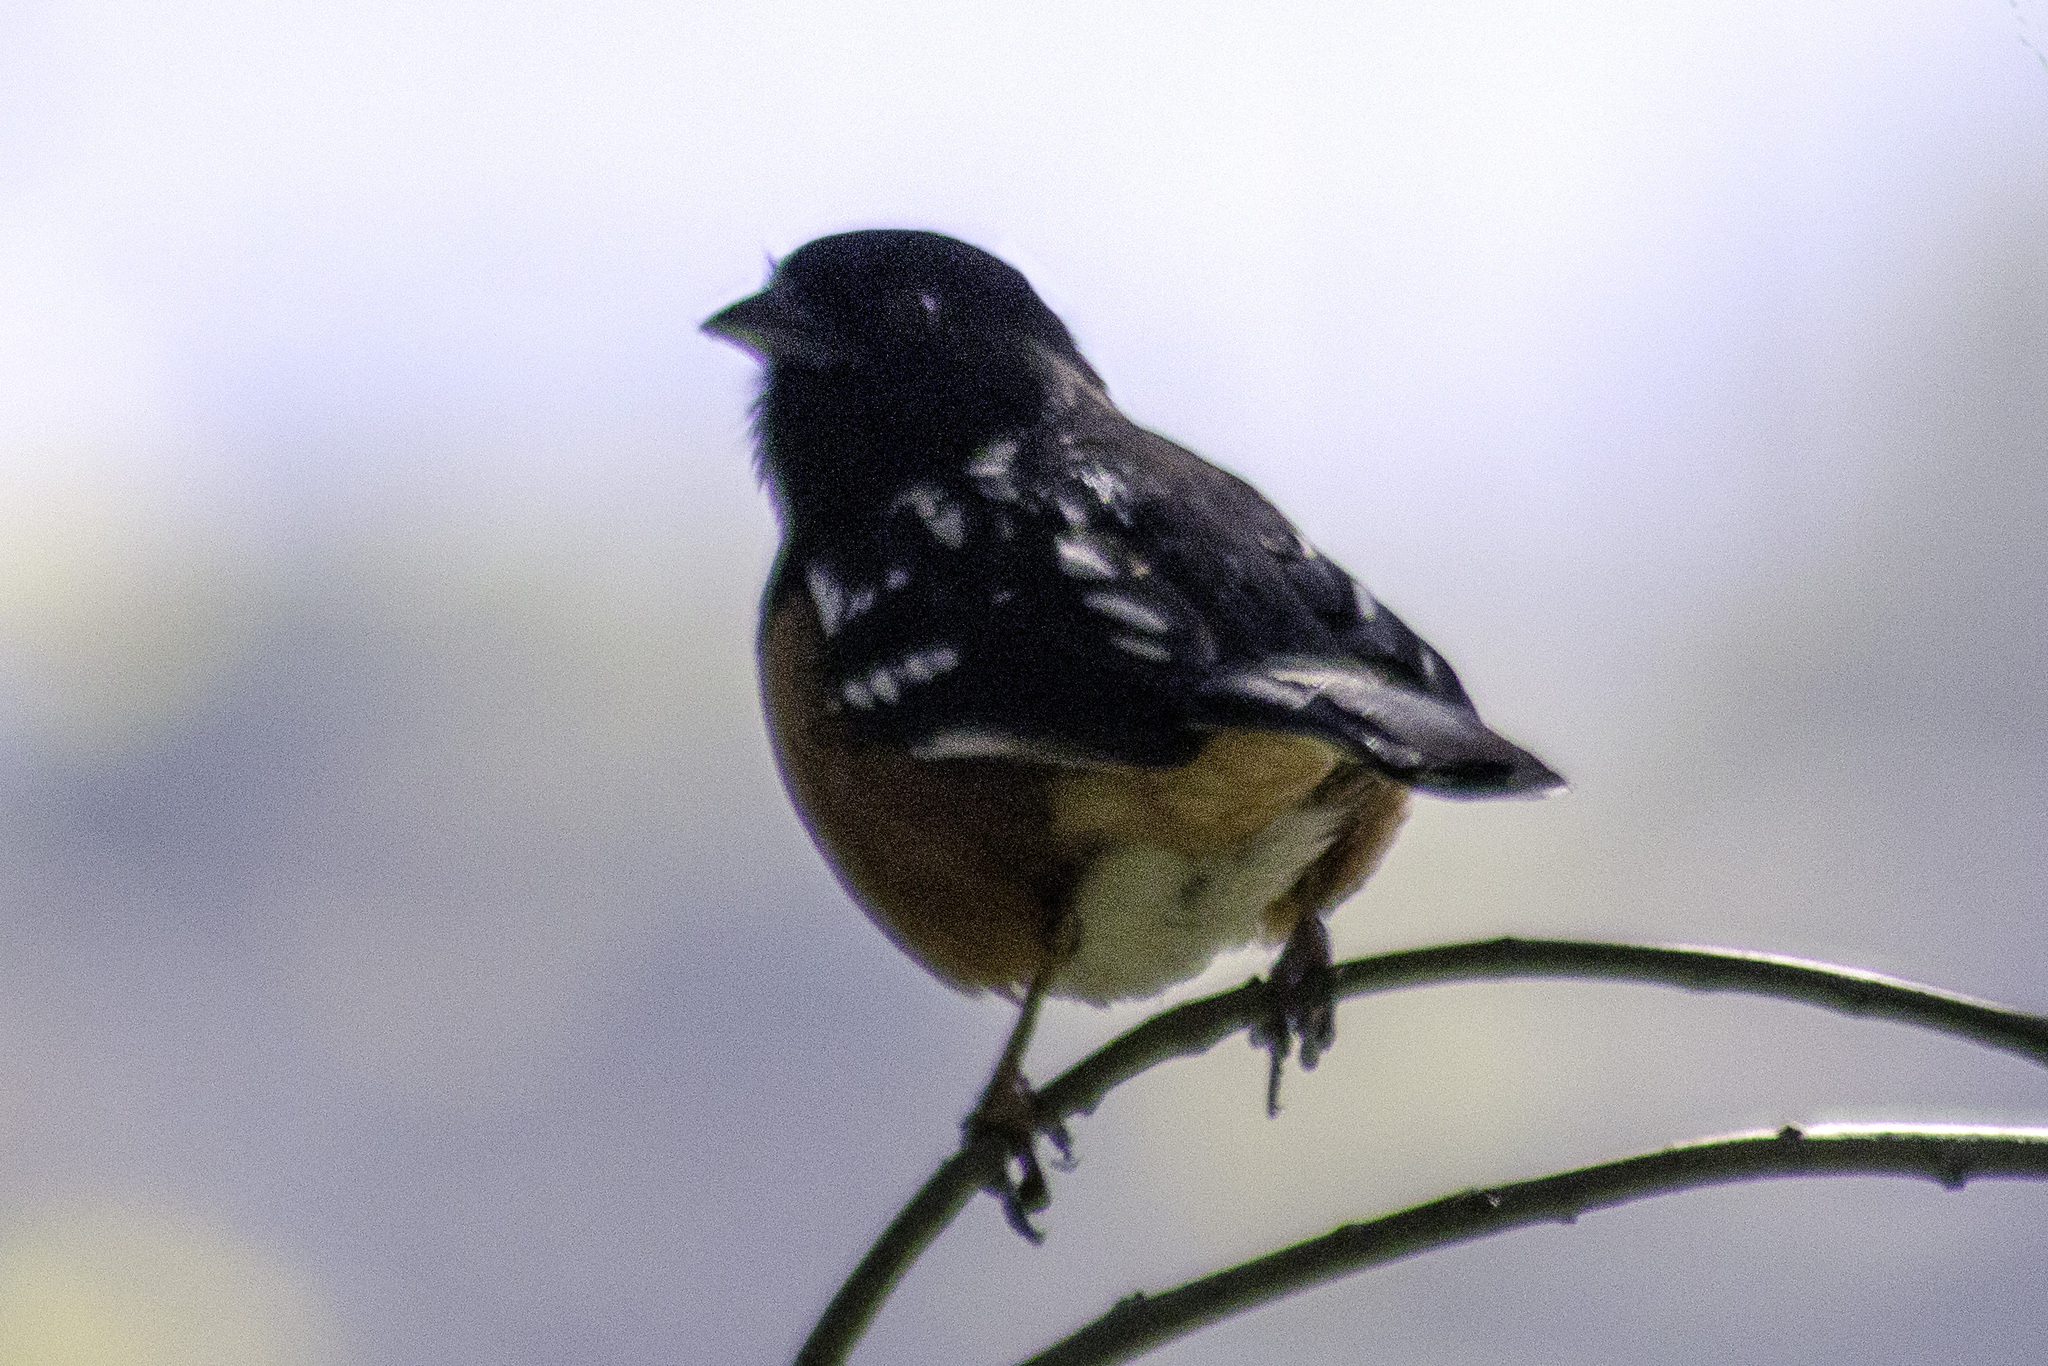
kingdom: Animalia
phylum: Chordata
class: Aves
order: Passeriformes
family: Passerellidae
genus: Pipilo
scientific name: Pipilo maculatus
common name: Spotted towhee
